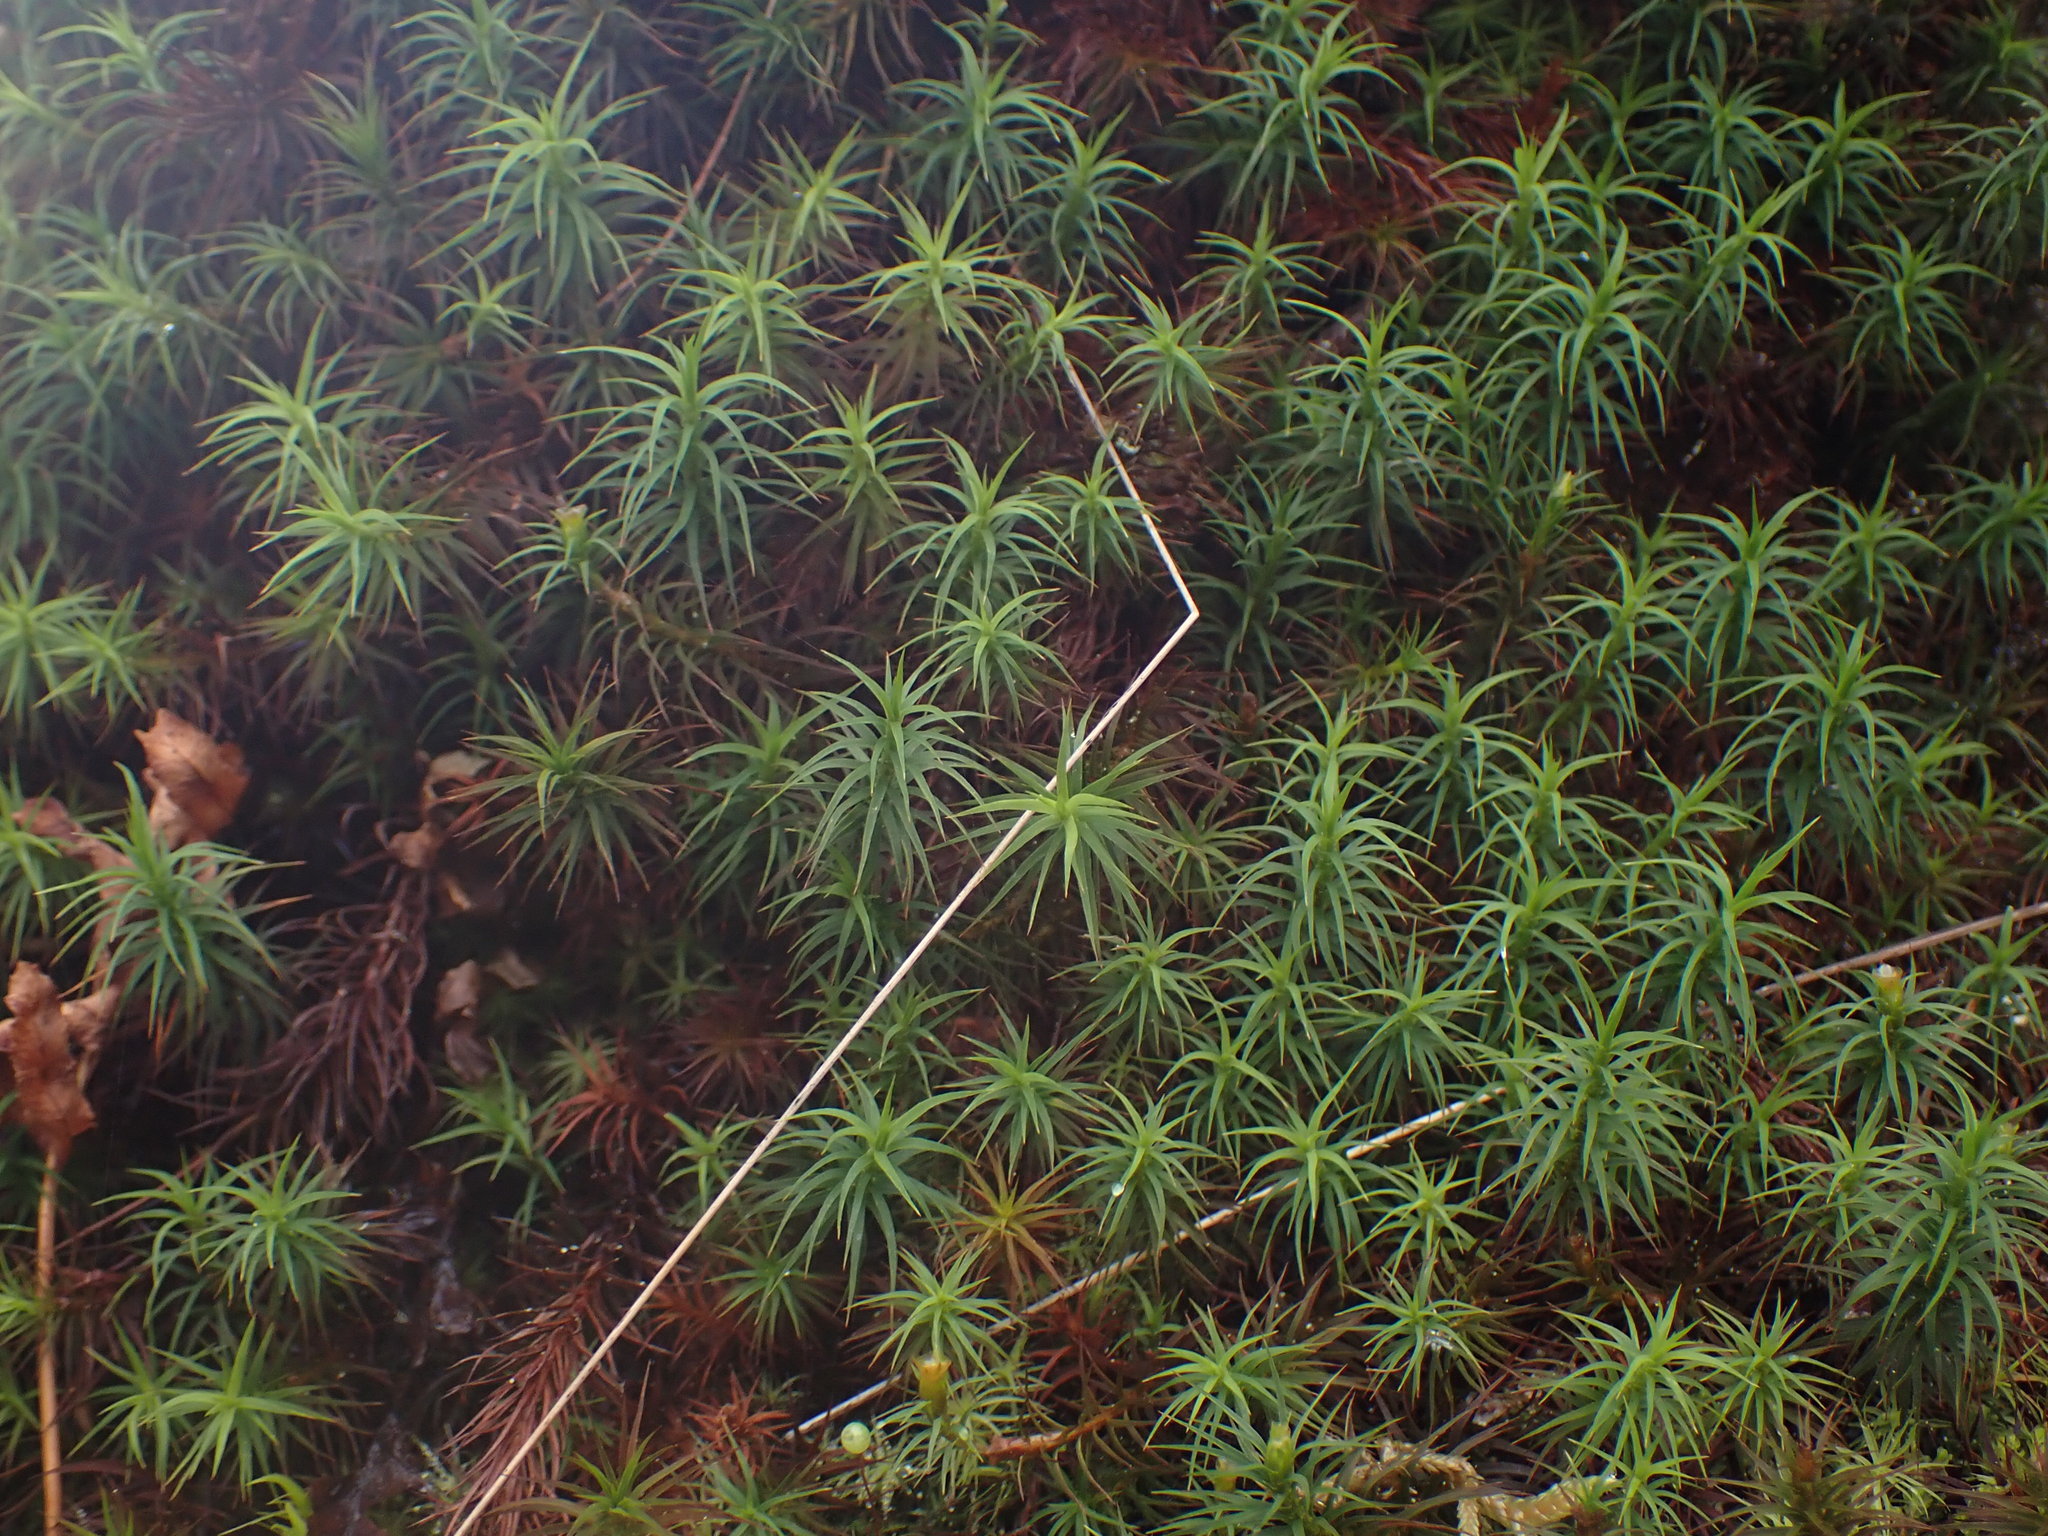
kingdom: Plantae
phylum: Bryophyta
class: Polytrichopsida
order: Polytrichales
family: Polytrichaceae
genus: Polytrichastrum
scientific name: Polytrichastrum alpinum
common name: Alpine haircap
